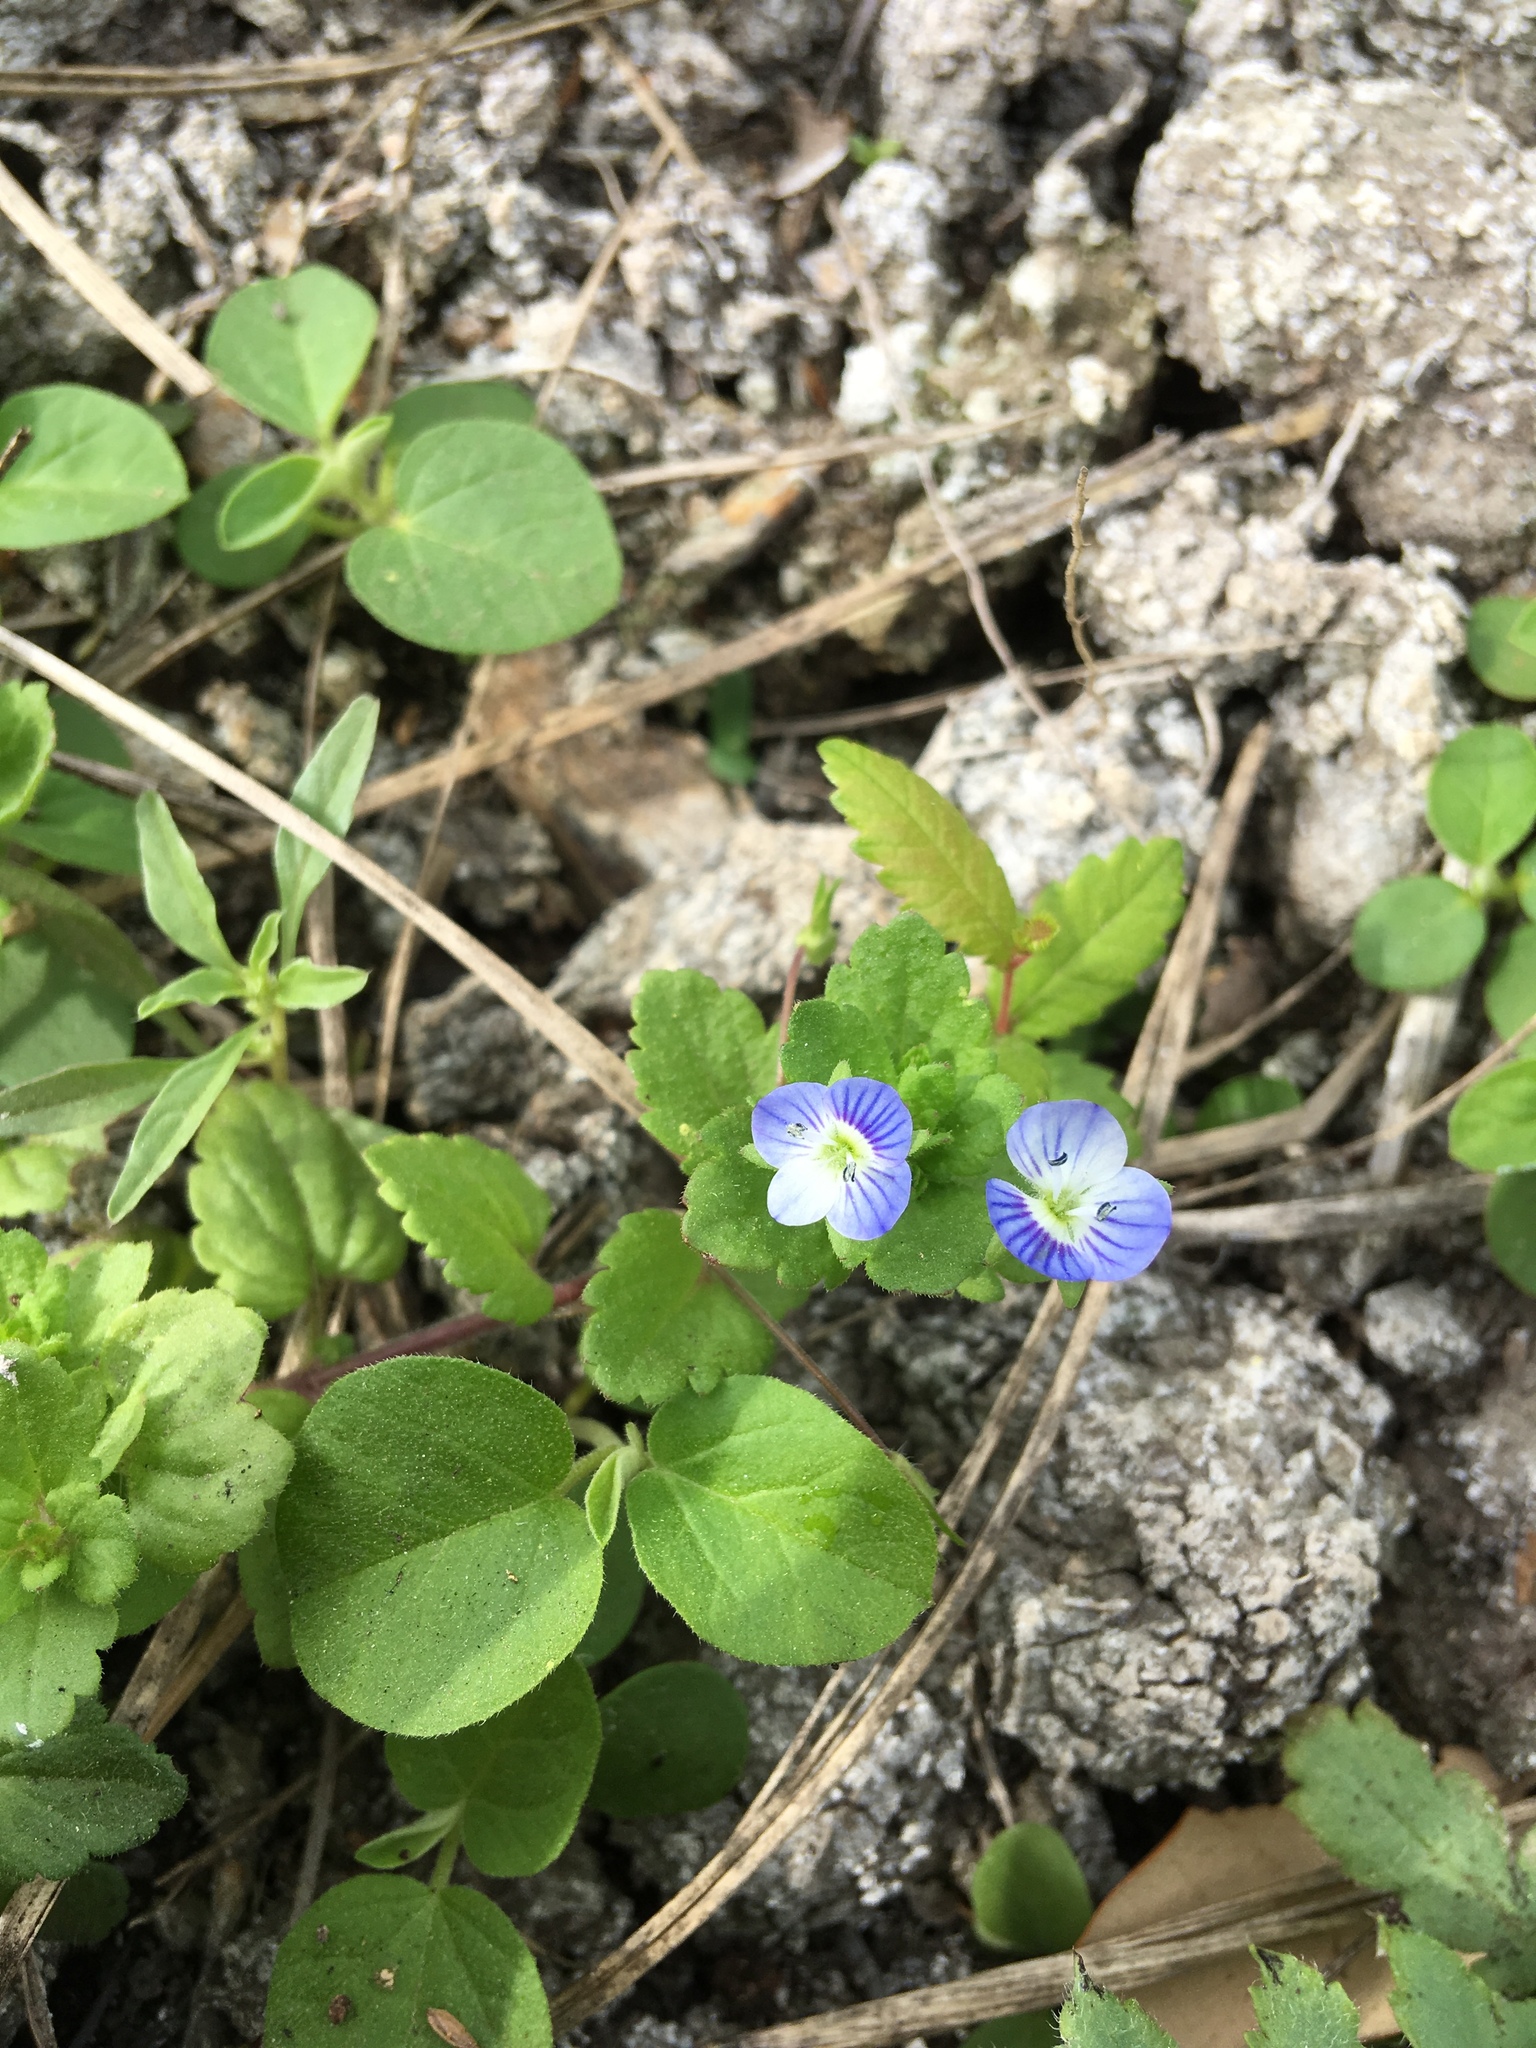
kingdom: Plantae
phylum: Tracheophyta
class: Magnoliopsida
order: Lamiales
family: Plantaginaceae
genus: Veronica
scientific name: Veronica persica
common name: Common field-speedwell
